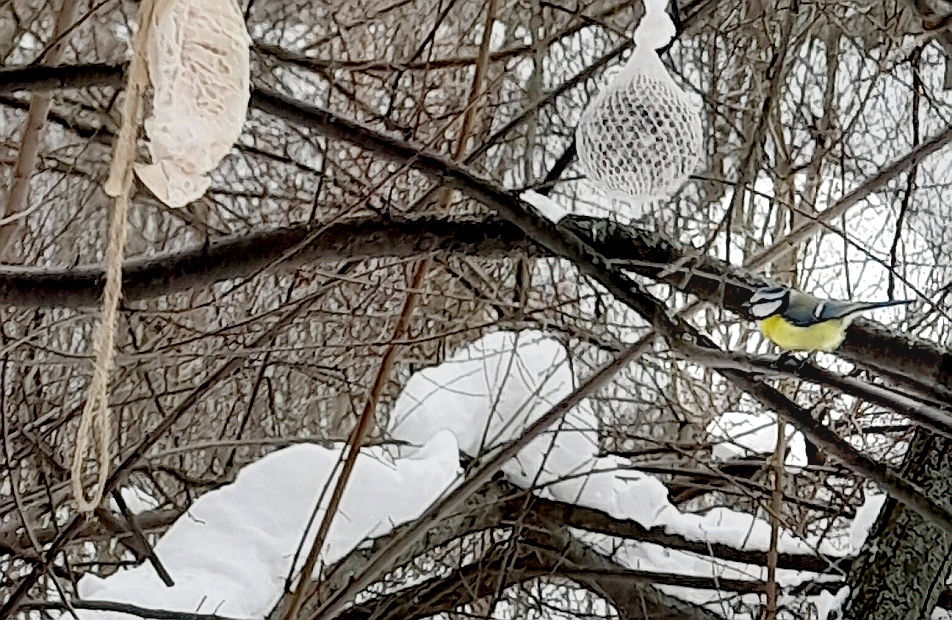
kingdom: Animalia
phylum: Chordata
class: Aves
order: Passeriformes
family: Paridae
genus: Cyanistes
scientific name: Cyanistes caeruleus
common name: Eurasian blue tit
